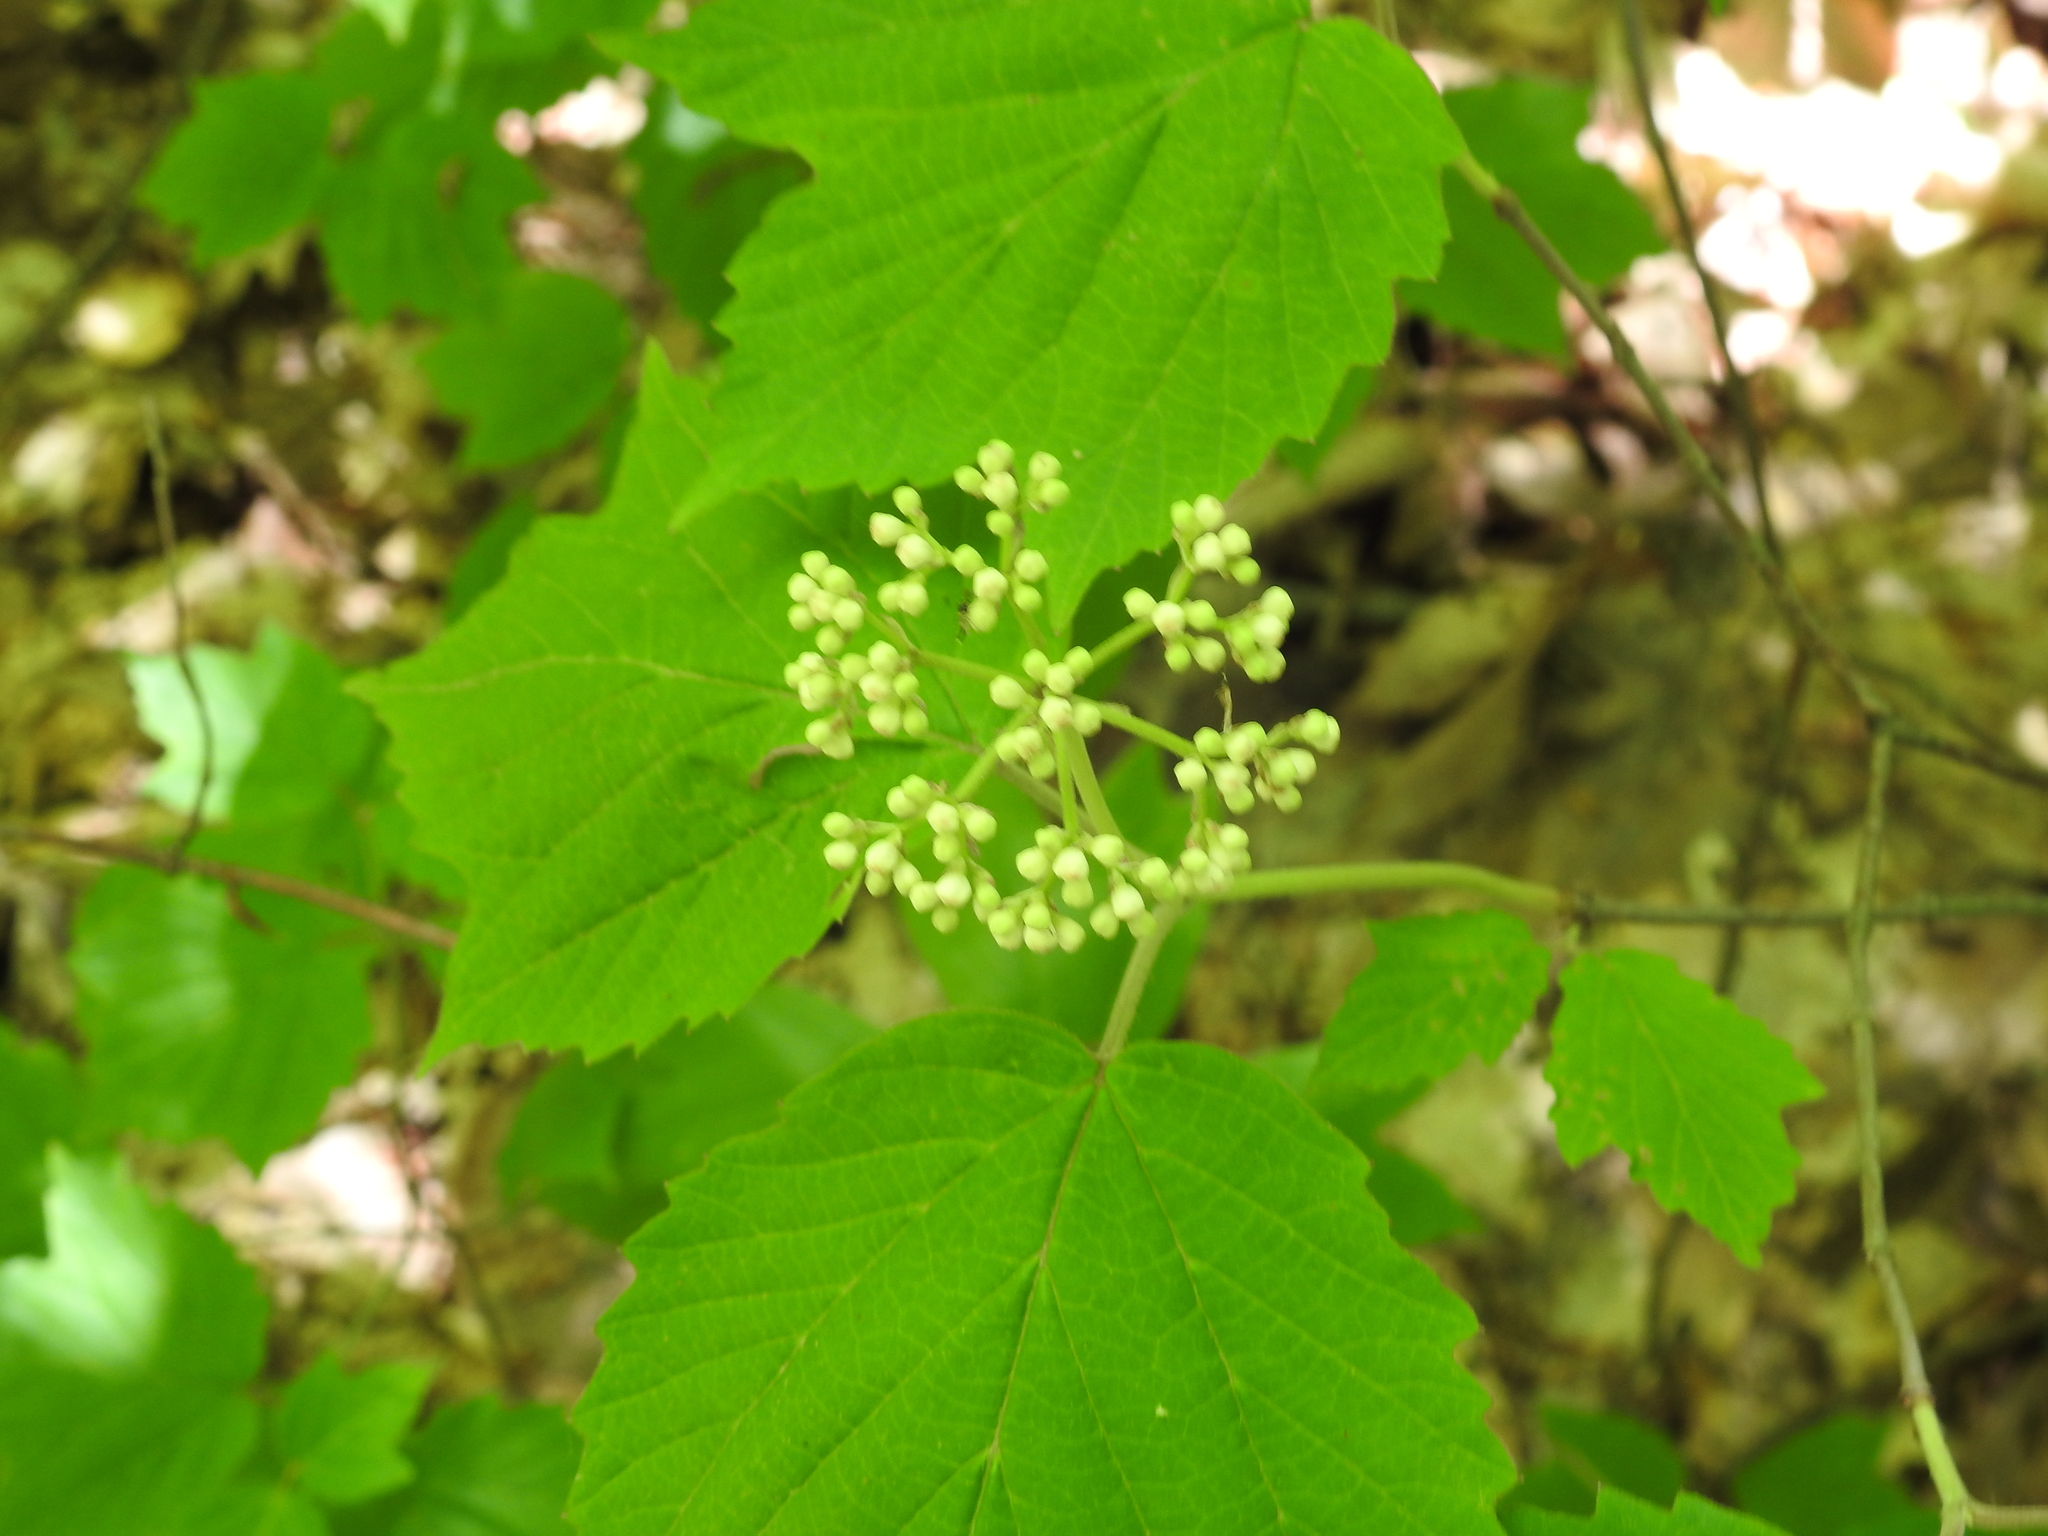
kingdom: Plantae
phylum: Tracheophyta
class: Magnoliopsida
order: Dipsacales
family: Viburnaceae
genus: Viburnum
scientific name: Viburnum acerifolium
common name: Dockmackie
